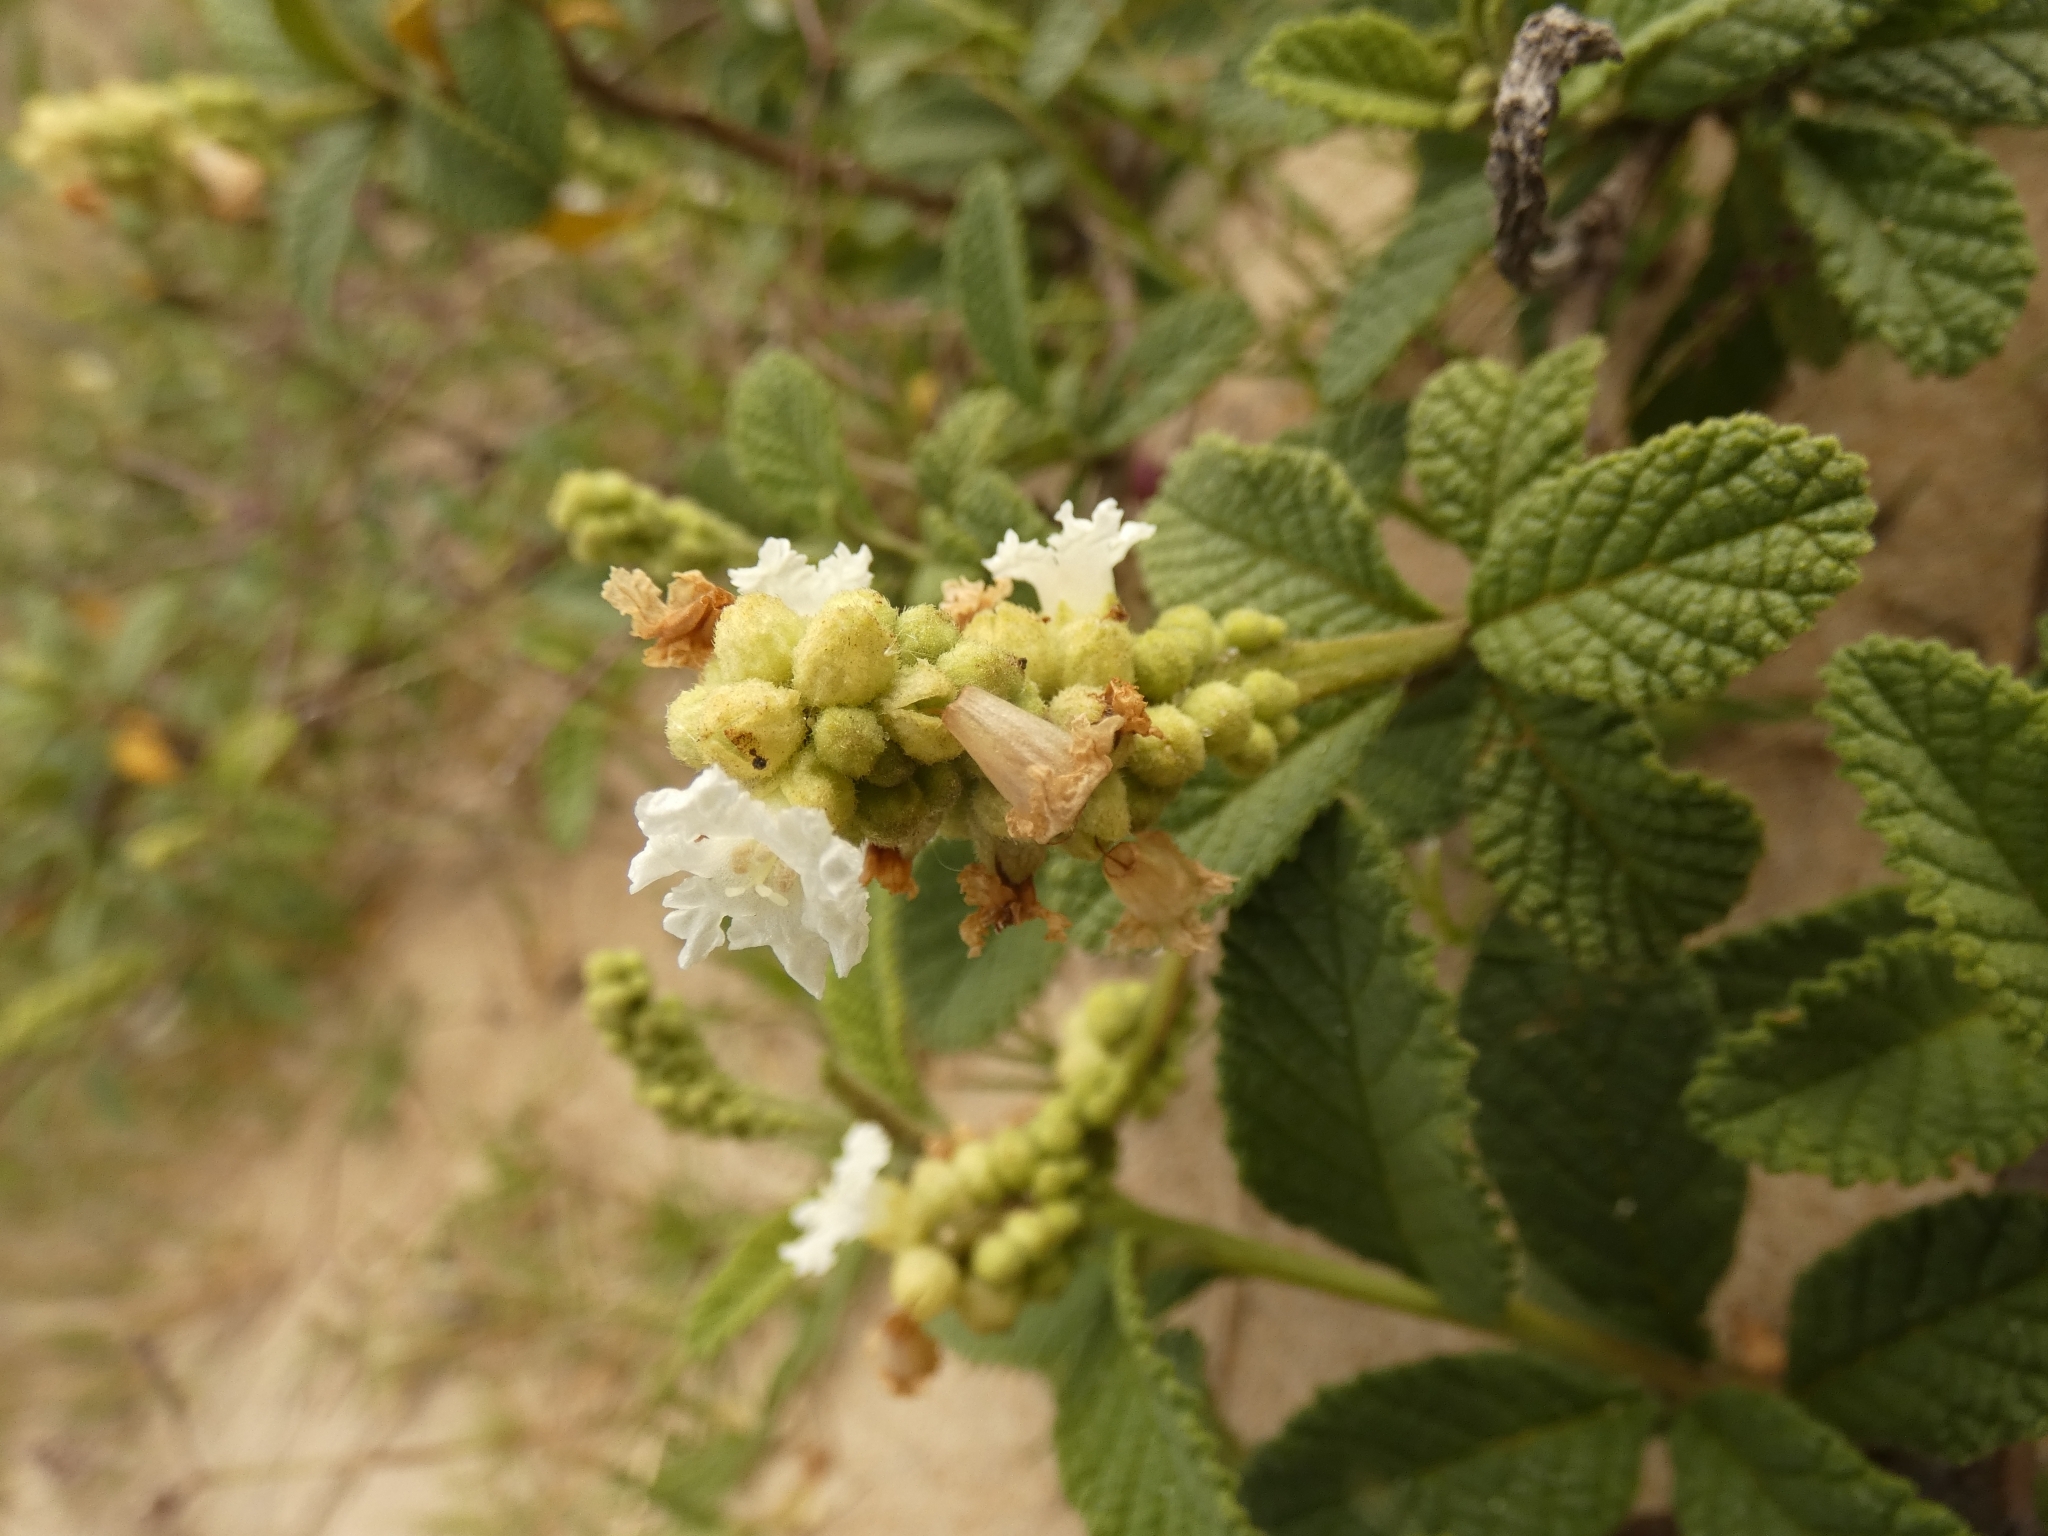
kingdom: Plantae
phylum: Tracheophyta
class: Magnoliopsida
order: Boraginales
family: Cordiaceae
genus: Varronia
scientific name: Varronia curassavica
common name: Black sage
